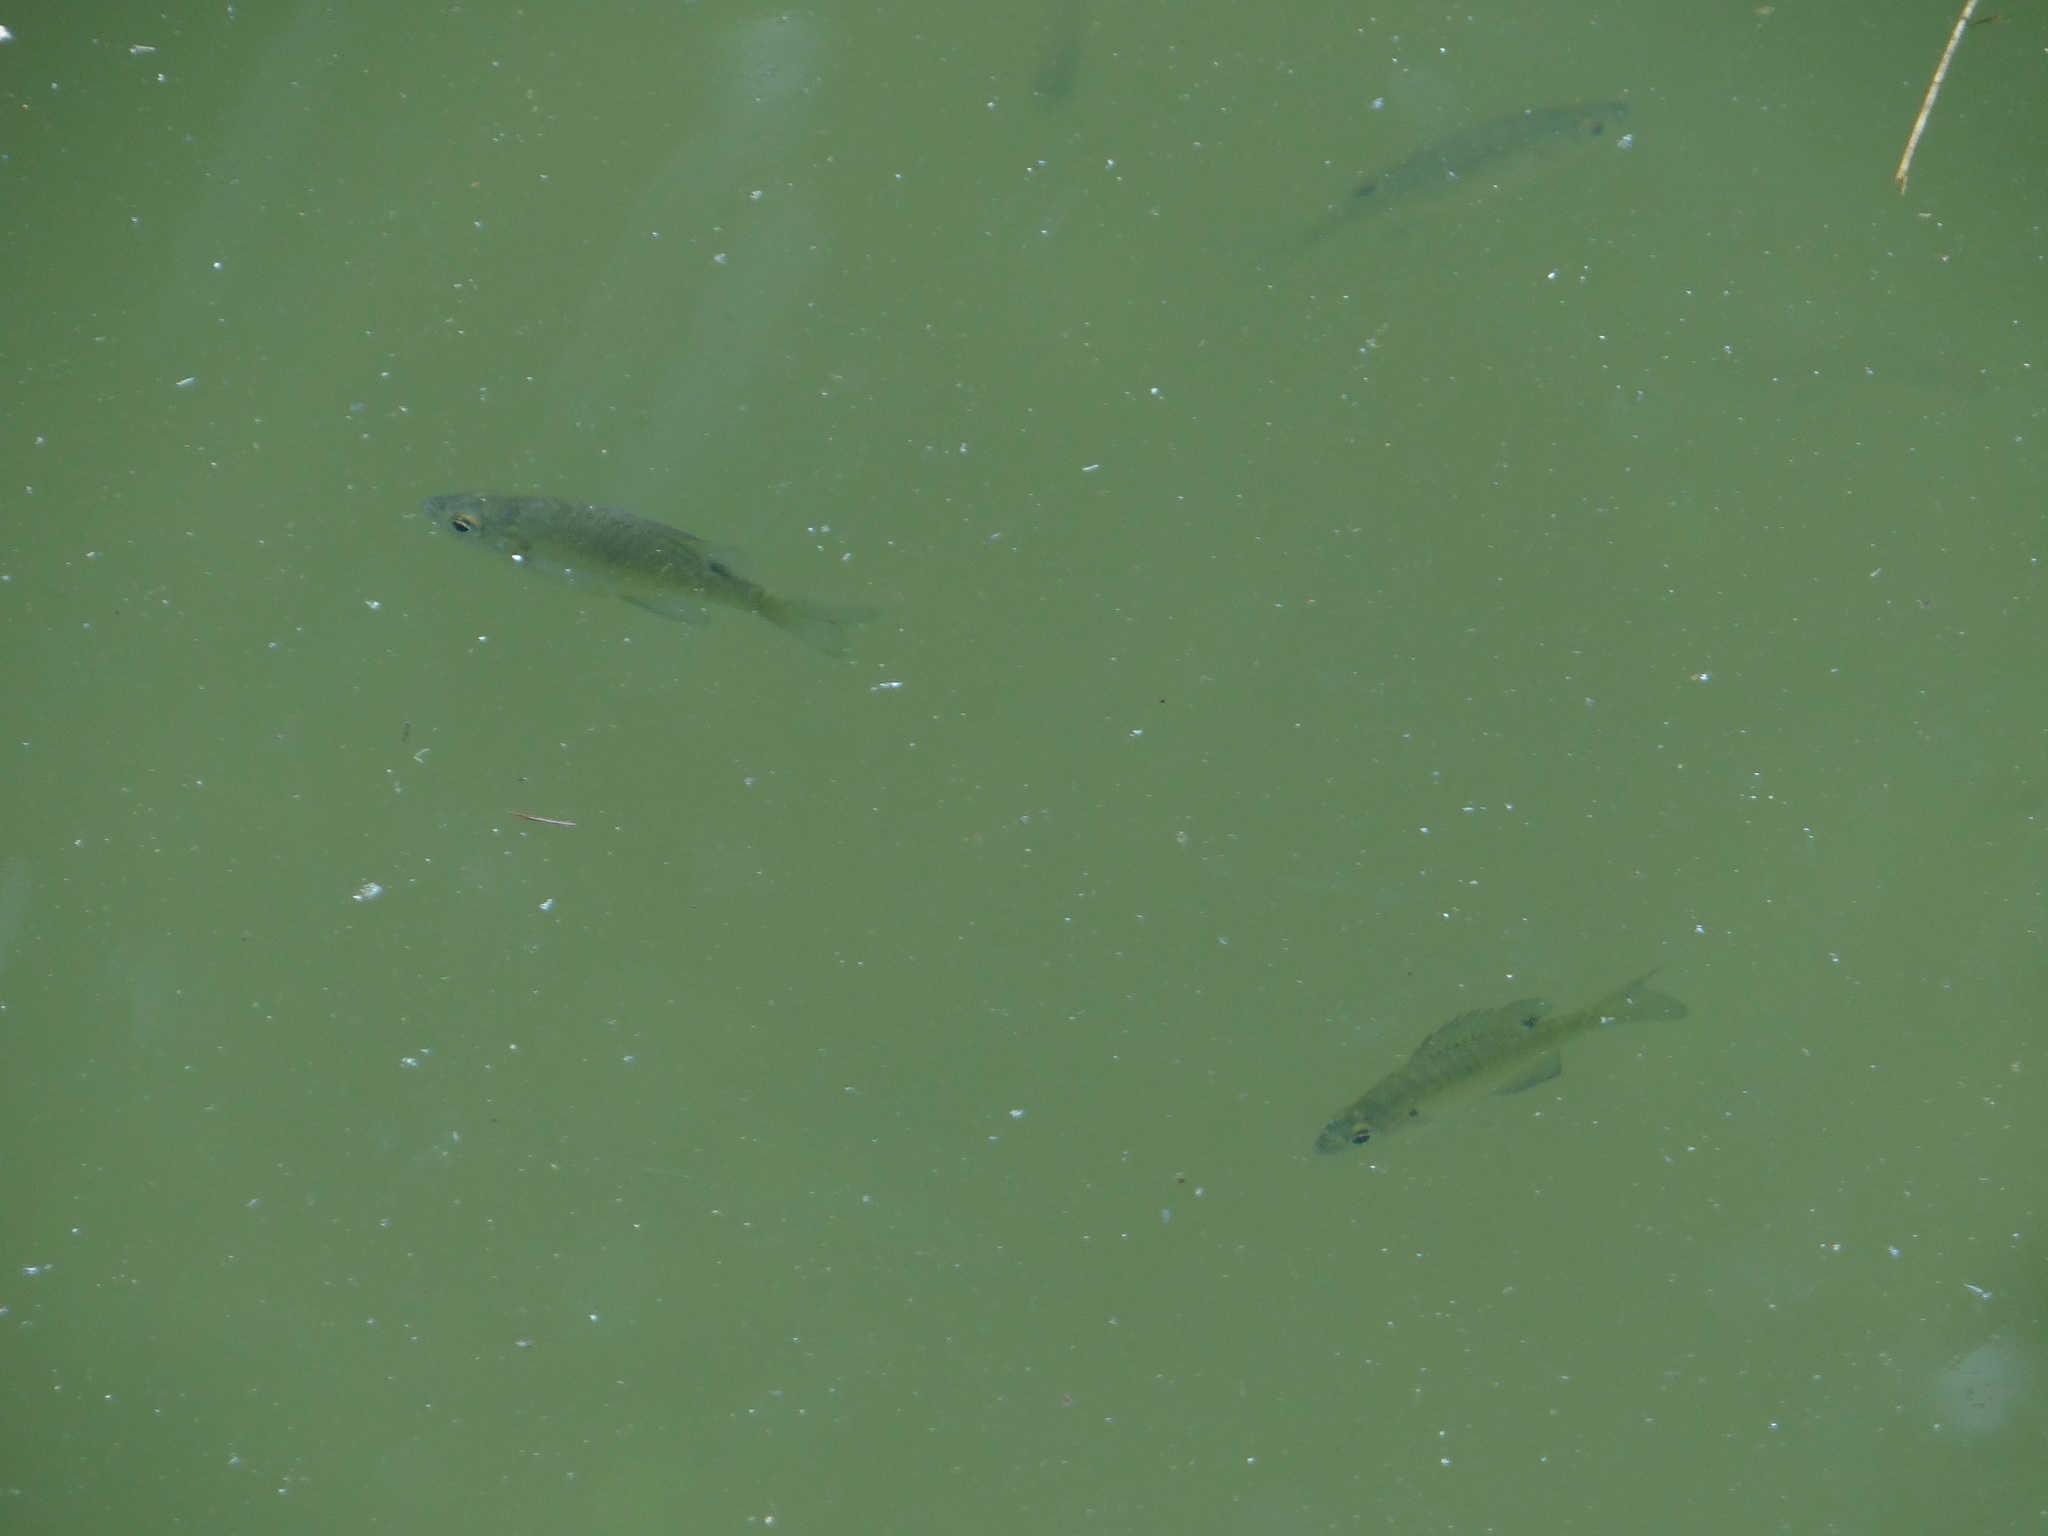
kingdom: Animalia
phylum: Chordata
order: Perciformes
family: Centrarchidae
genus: Lepomis
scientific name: Lepomis macrochirus
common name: Bluegill
